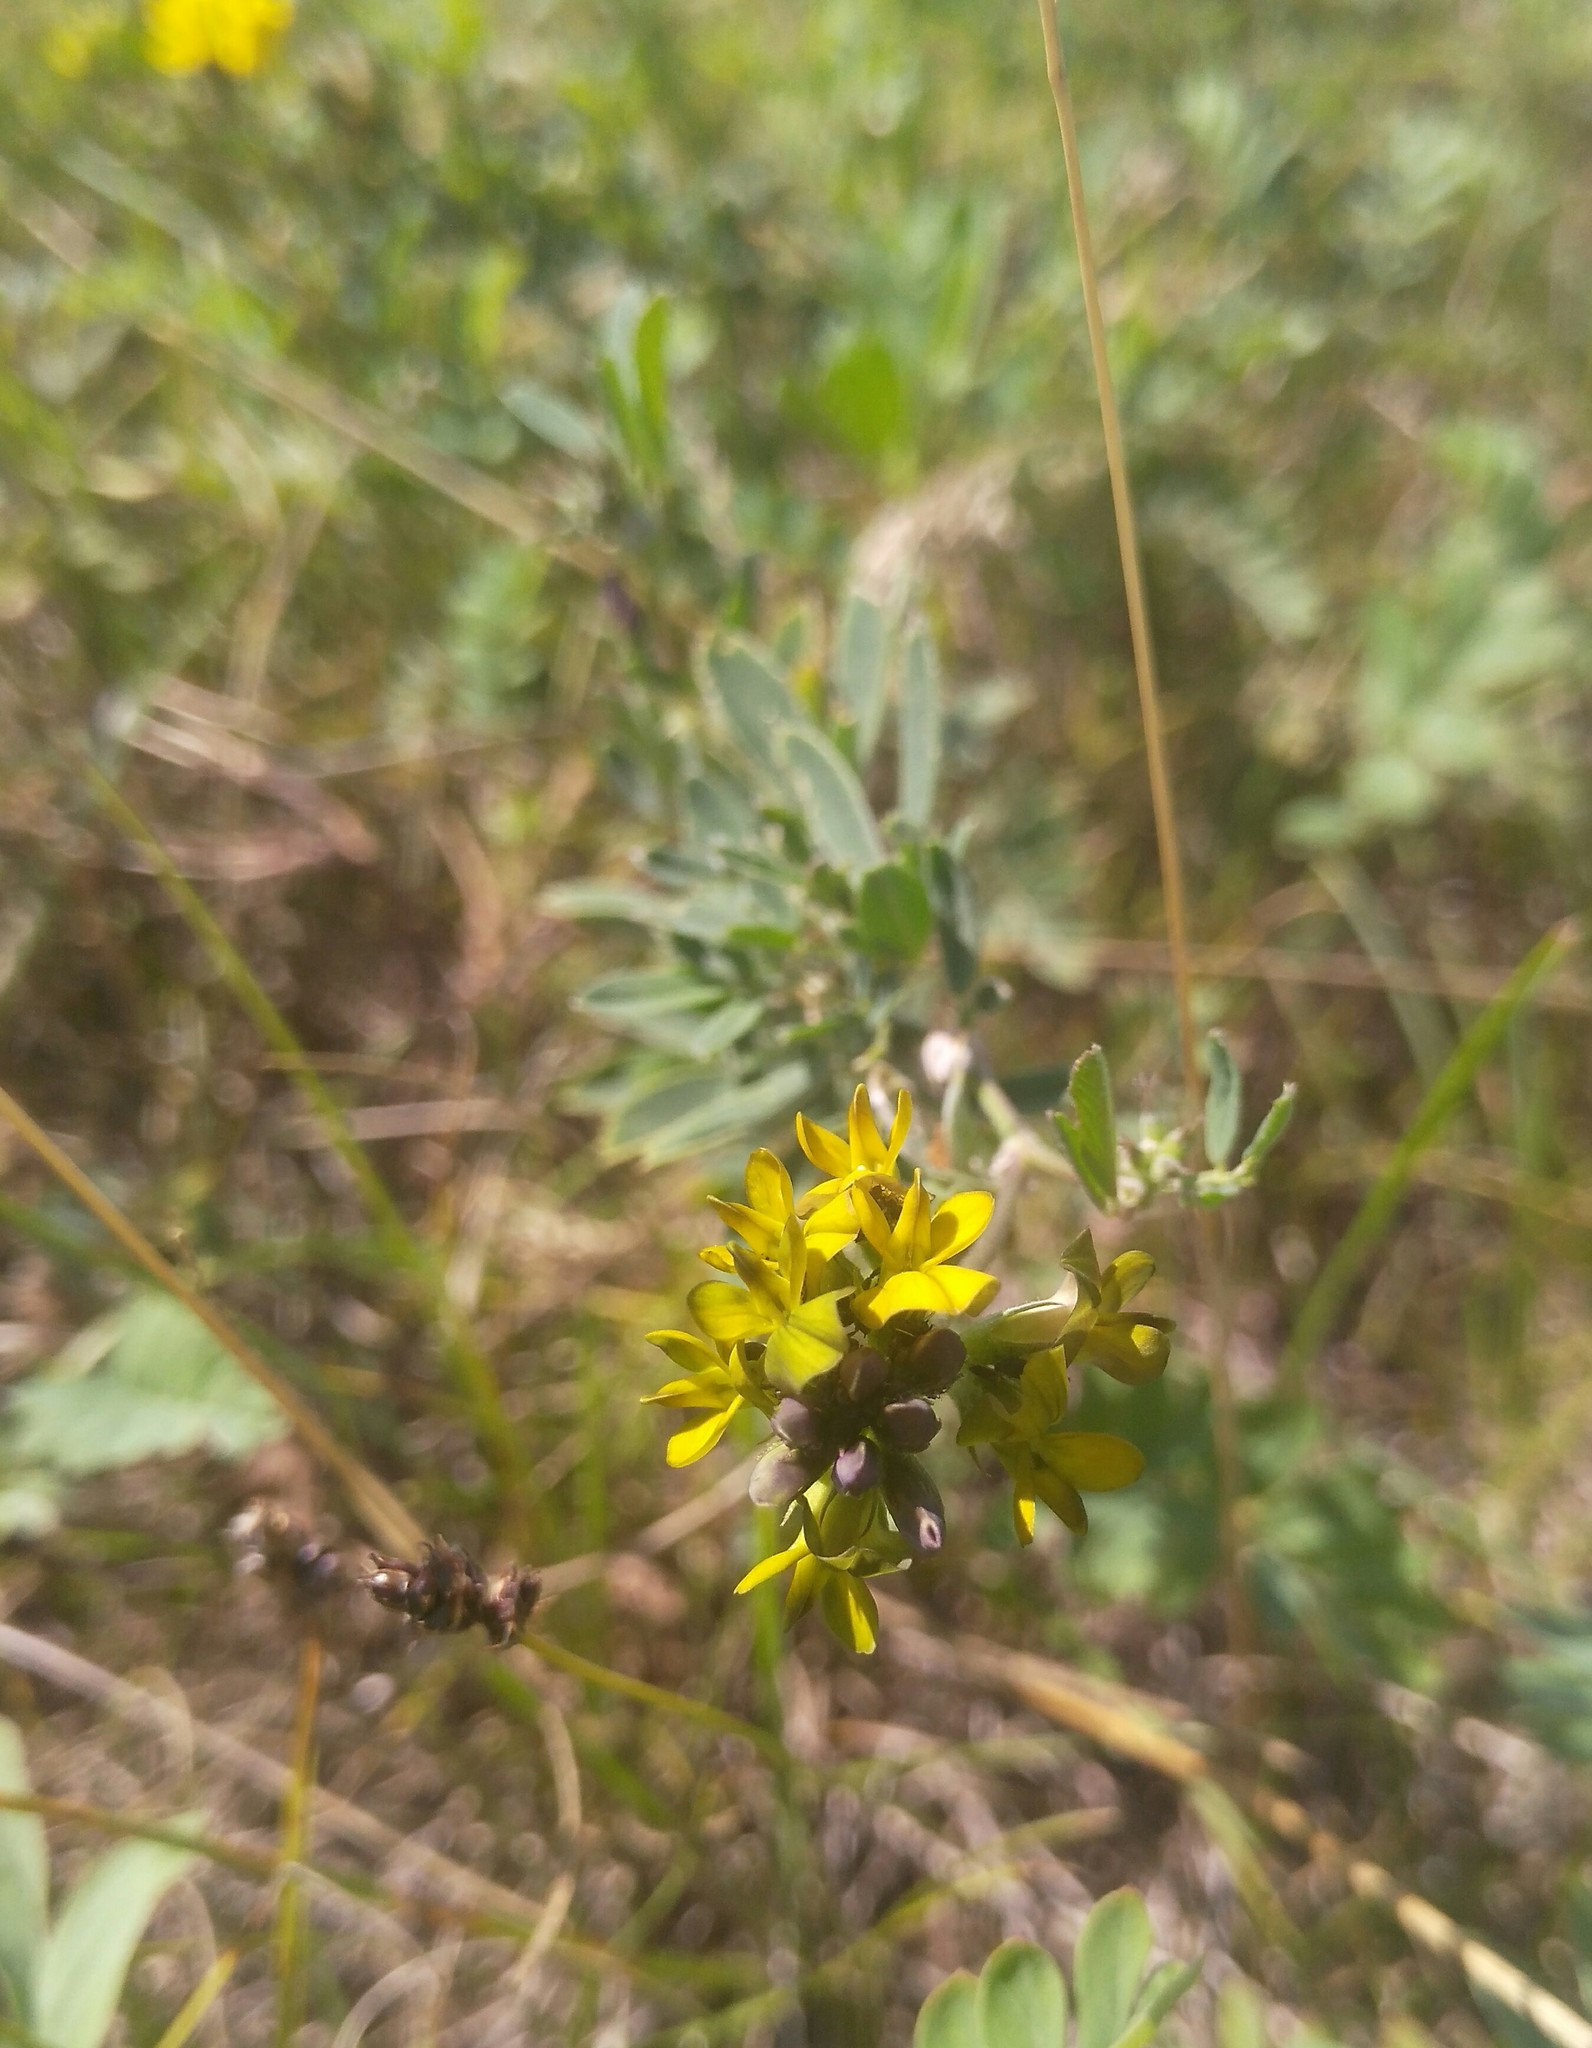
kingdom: Plantae
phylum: Tracheophyta
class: Magnoliopsida
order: Fabales
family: Fabaceae
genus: Medicago
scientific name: Medicago varia
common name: Sand lucerne
